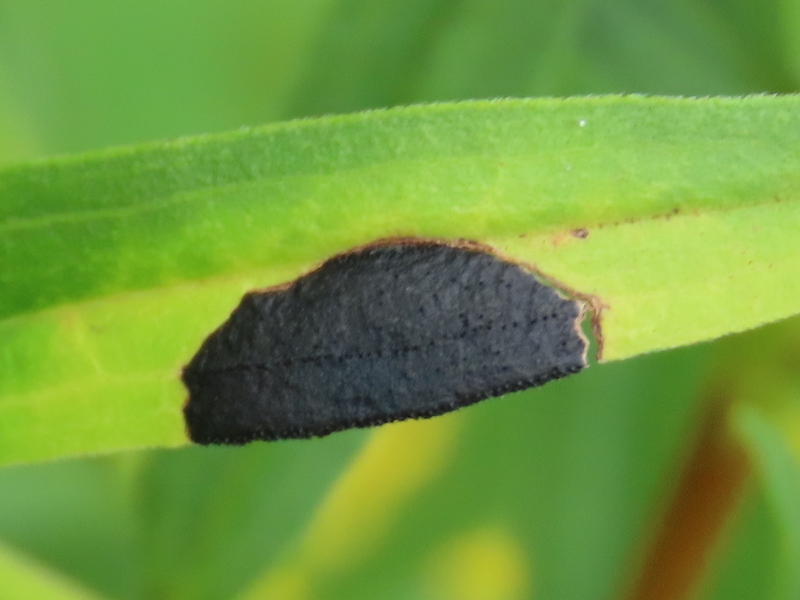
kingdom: Animalia
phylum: Arthropoda
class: Insecta
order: Diptera
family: Cecidomyiidae
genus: Asteromyia
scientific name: Asteromyia euthamiae
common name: Euthamia leaf gall midge
